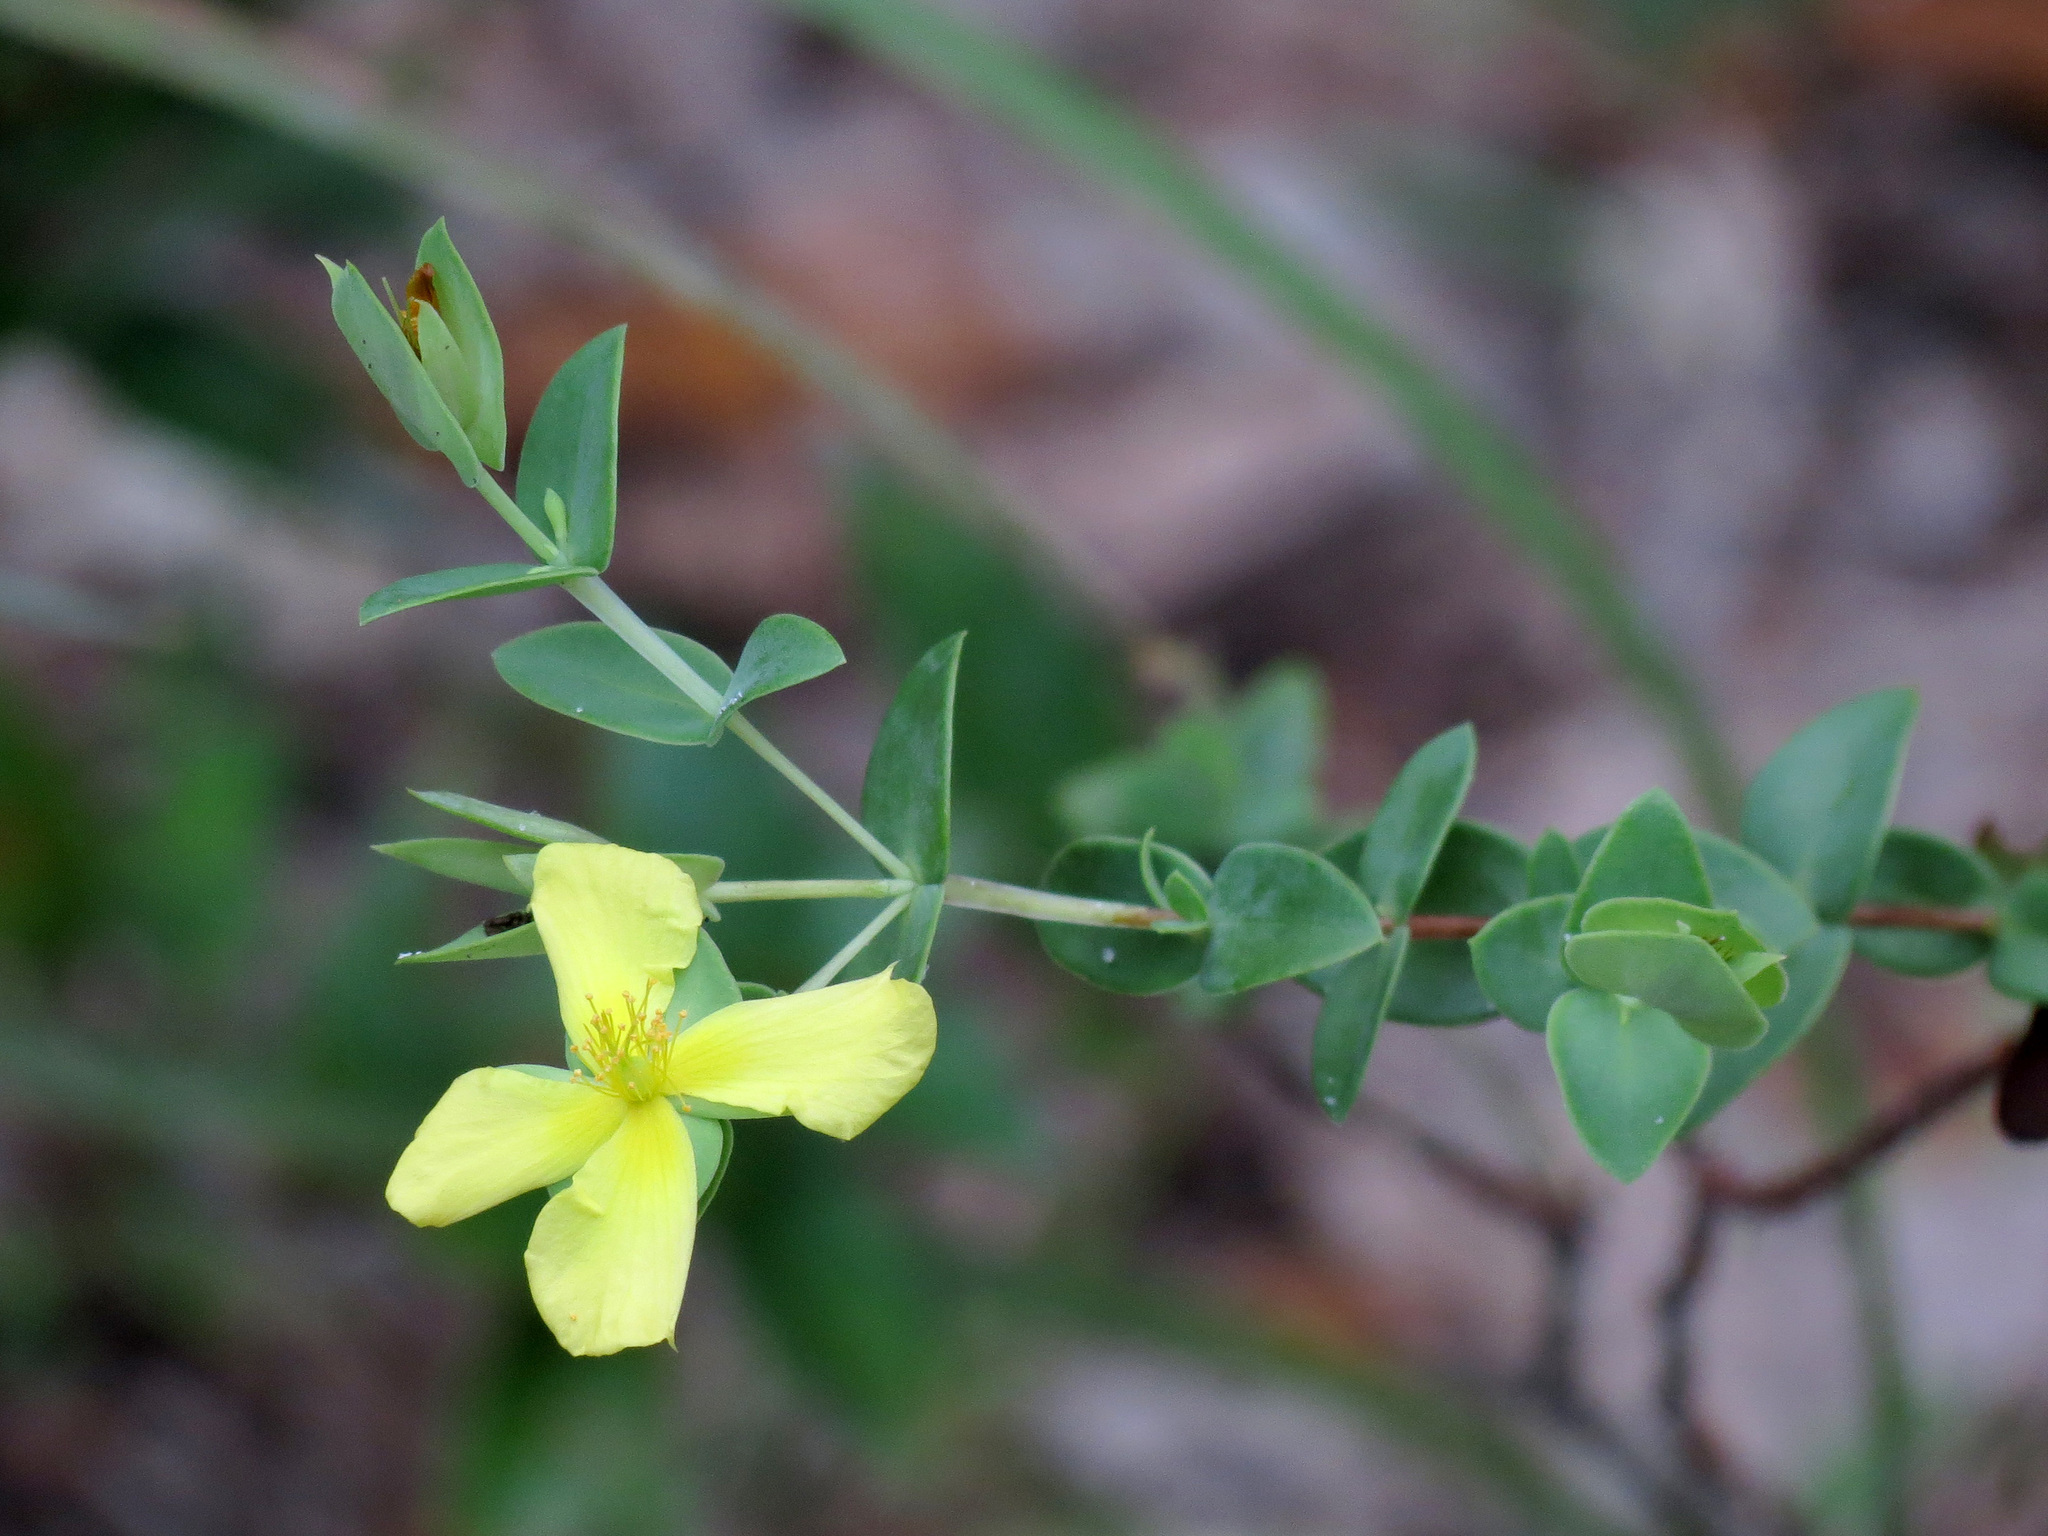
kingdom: Plantae
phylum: Tracheophyta
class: Magnoliopsida
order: Malpighiales
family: Hypericaceae
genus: Hypericum
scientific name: Hypericum tetrapetalum
